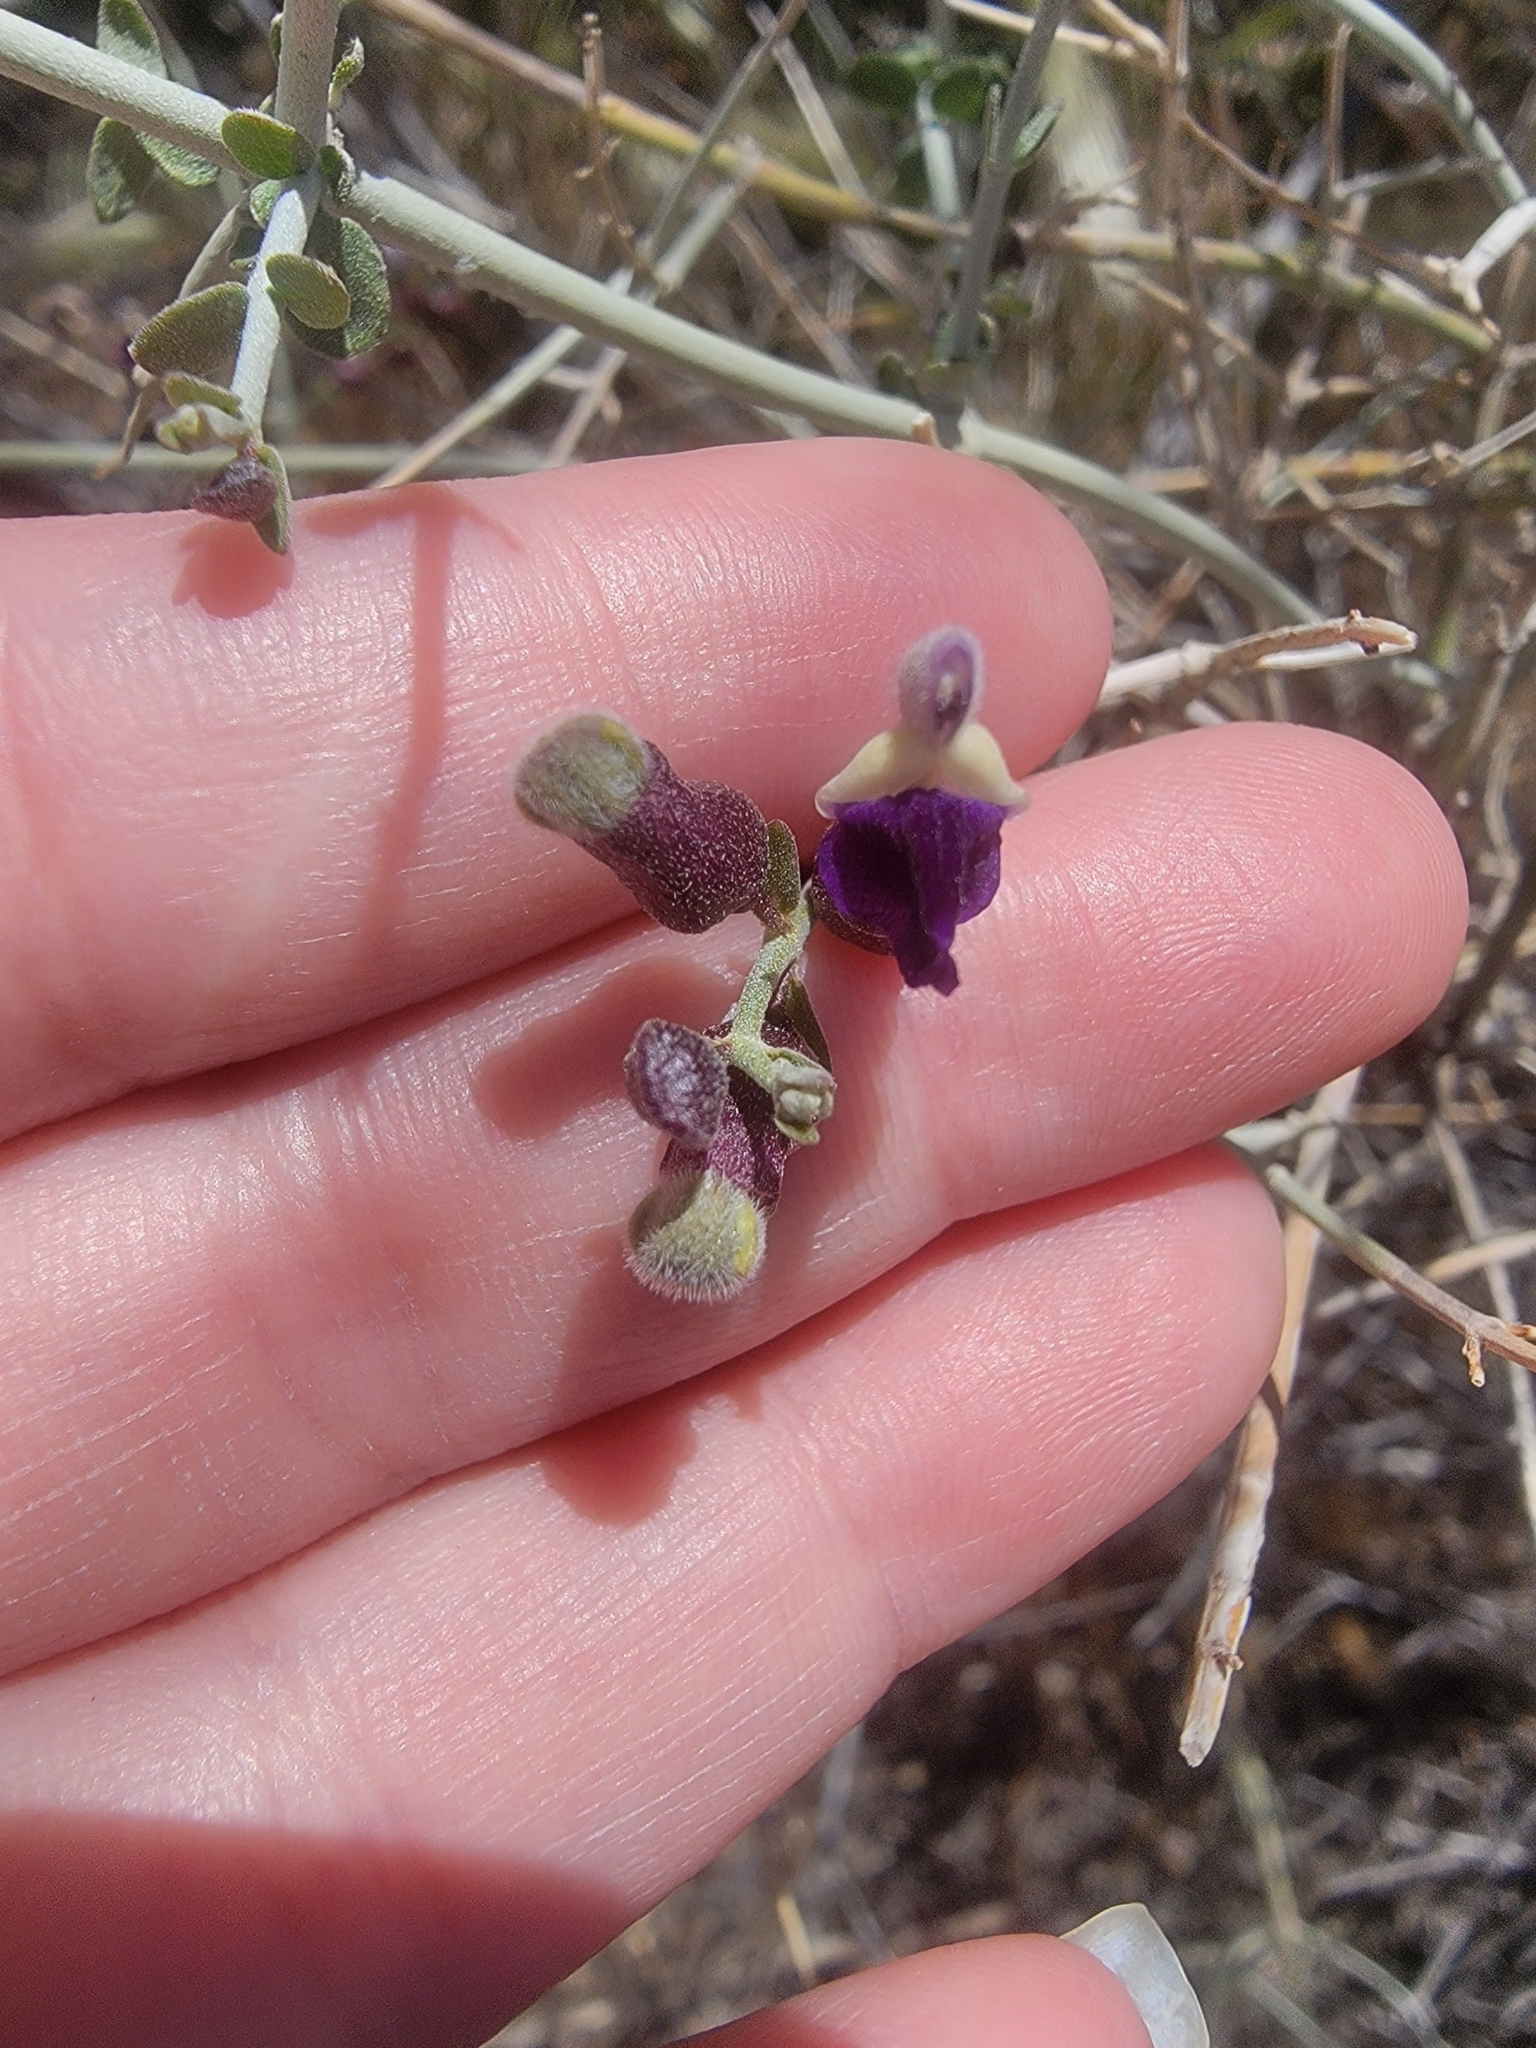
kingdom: Plantae
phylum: Tracheophyta
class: Magnoliopsida
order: Lamiales
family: Lamiaceae
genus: Scutellaria
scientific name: Scutellaria mexicana
